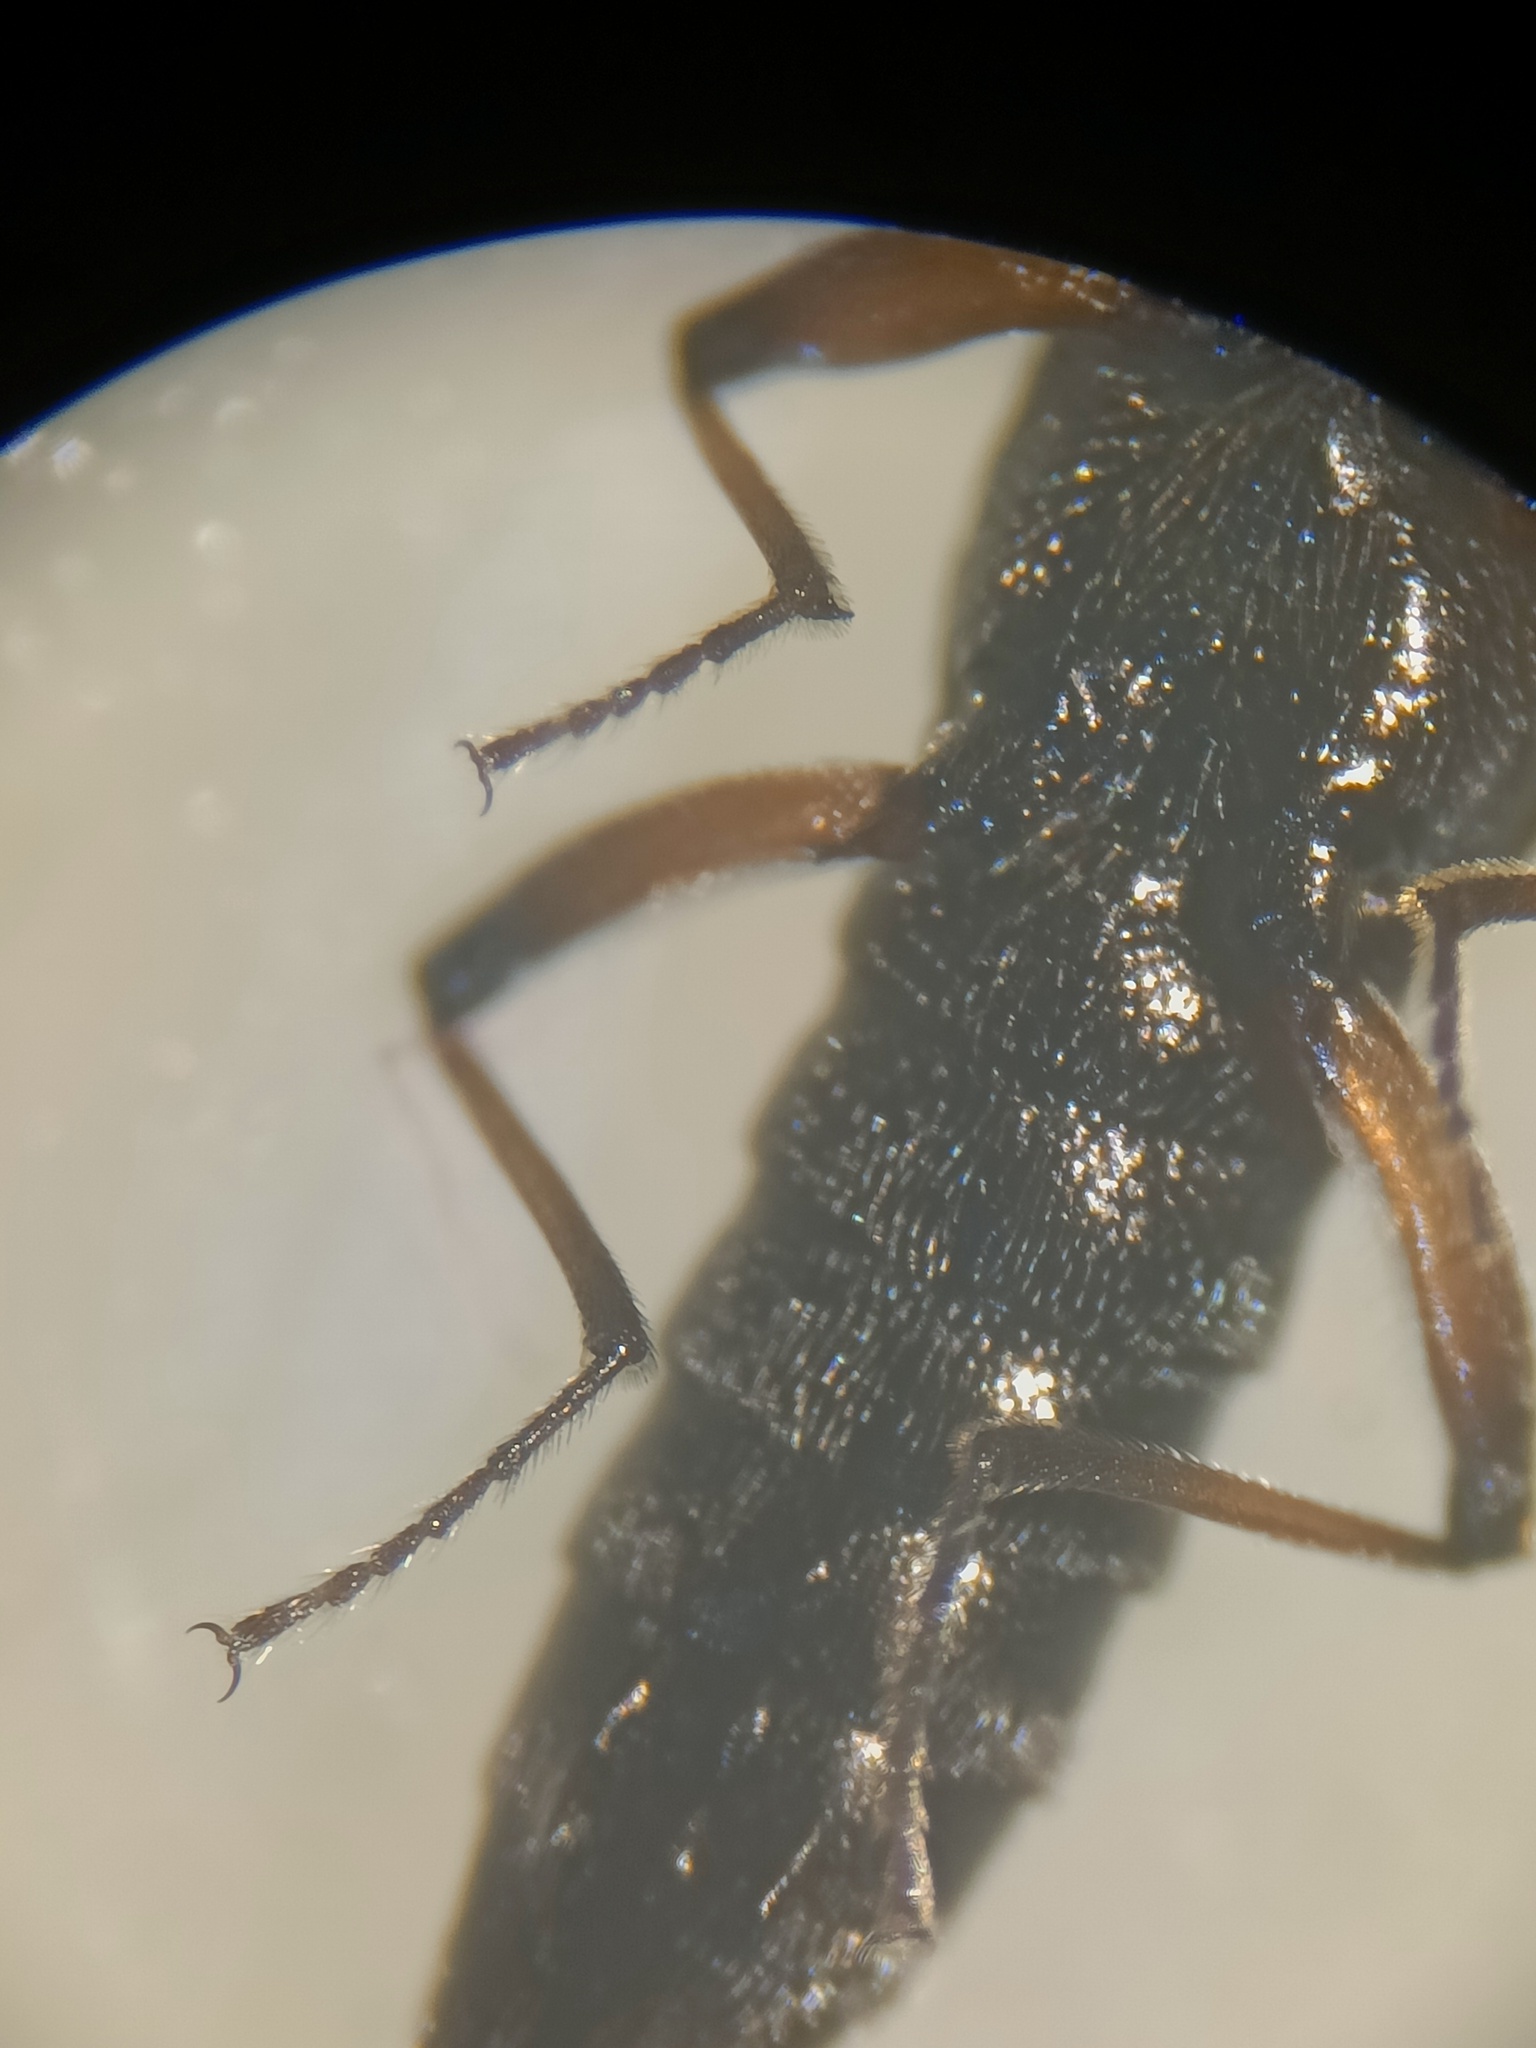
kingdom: Animalia
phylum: Arthropoda
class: Insecta
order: Coleoptera
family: Staphylinidae
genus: Stenus
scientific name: Stenus bimaculatus
